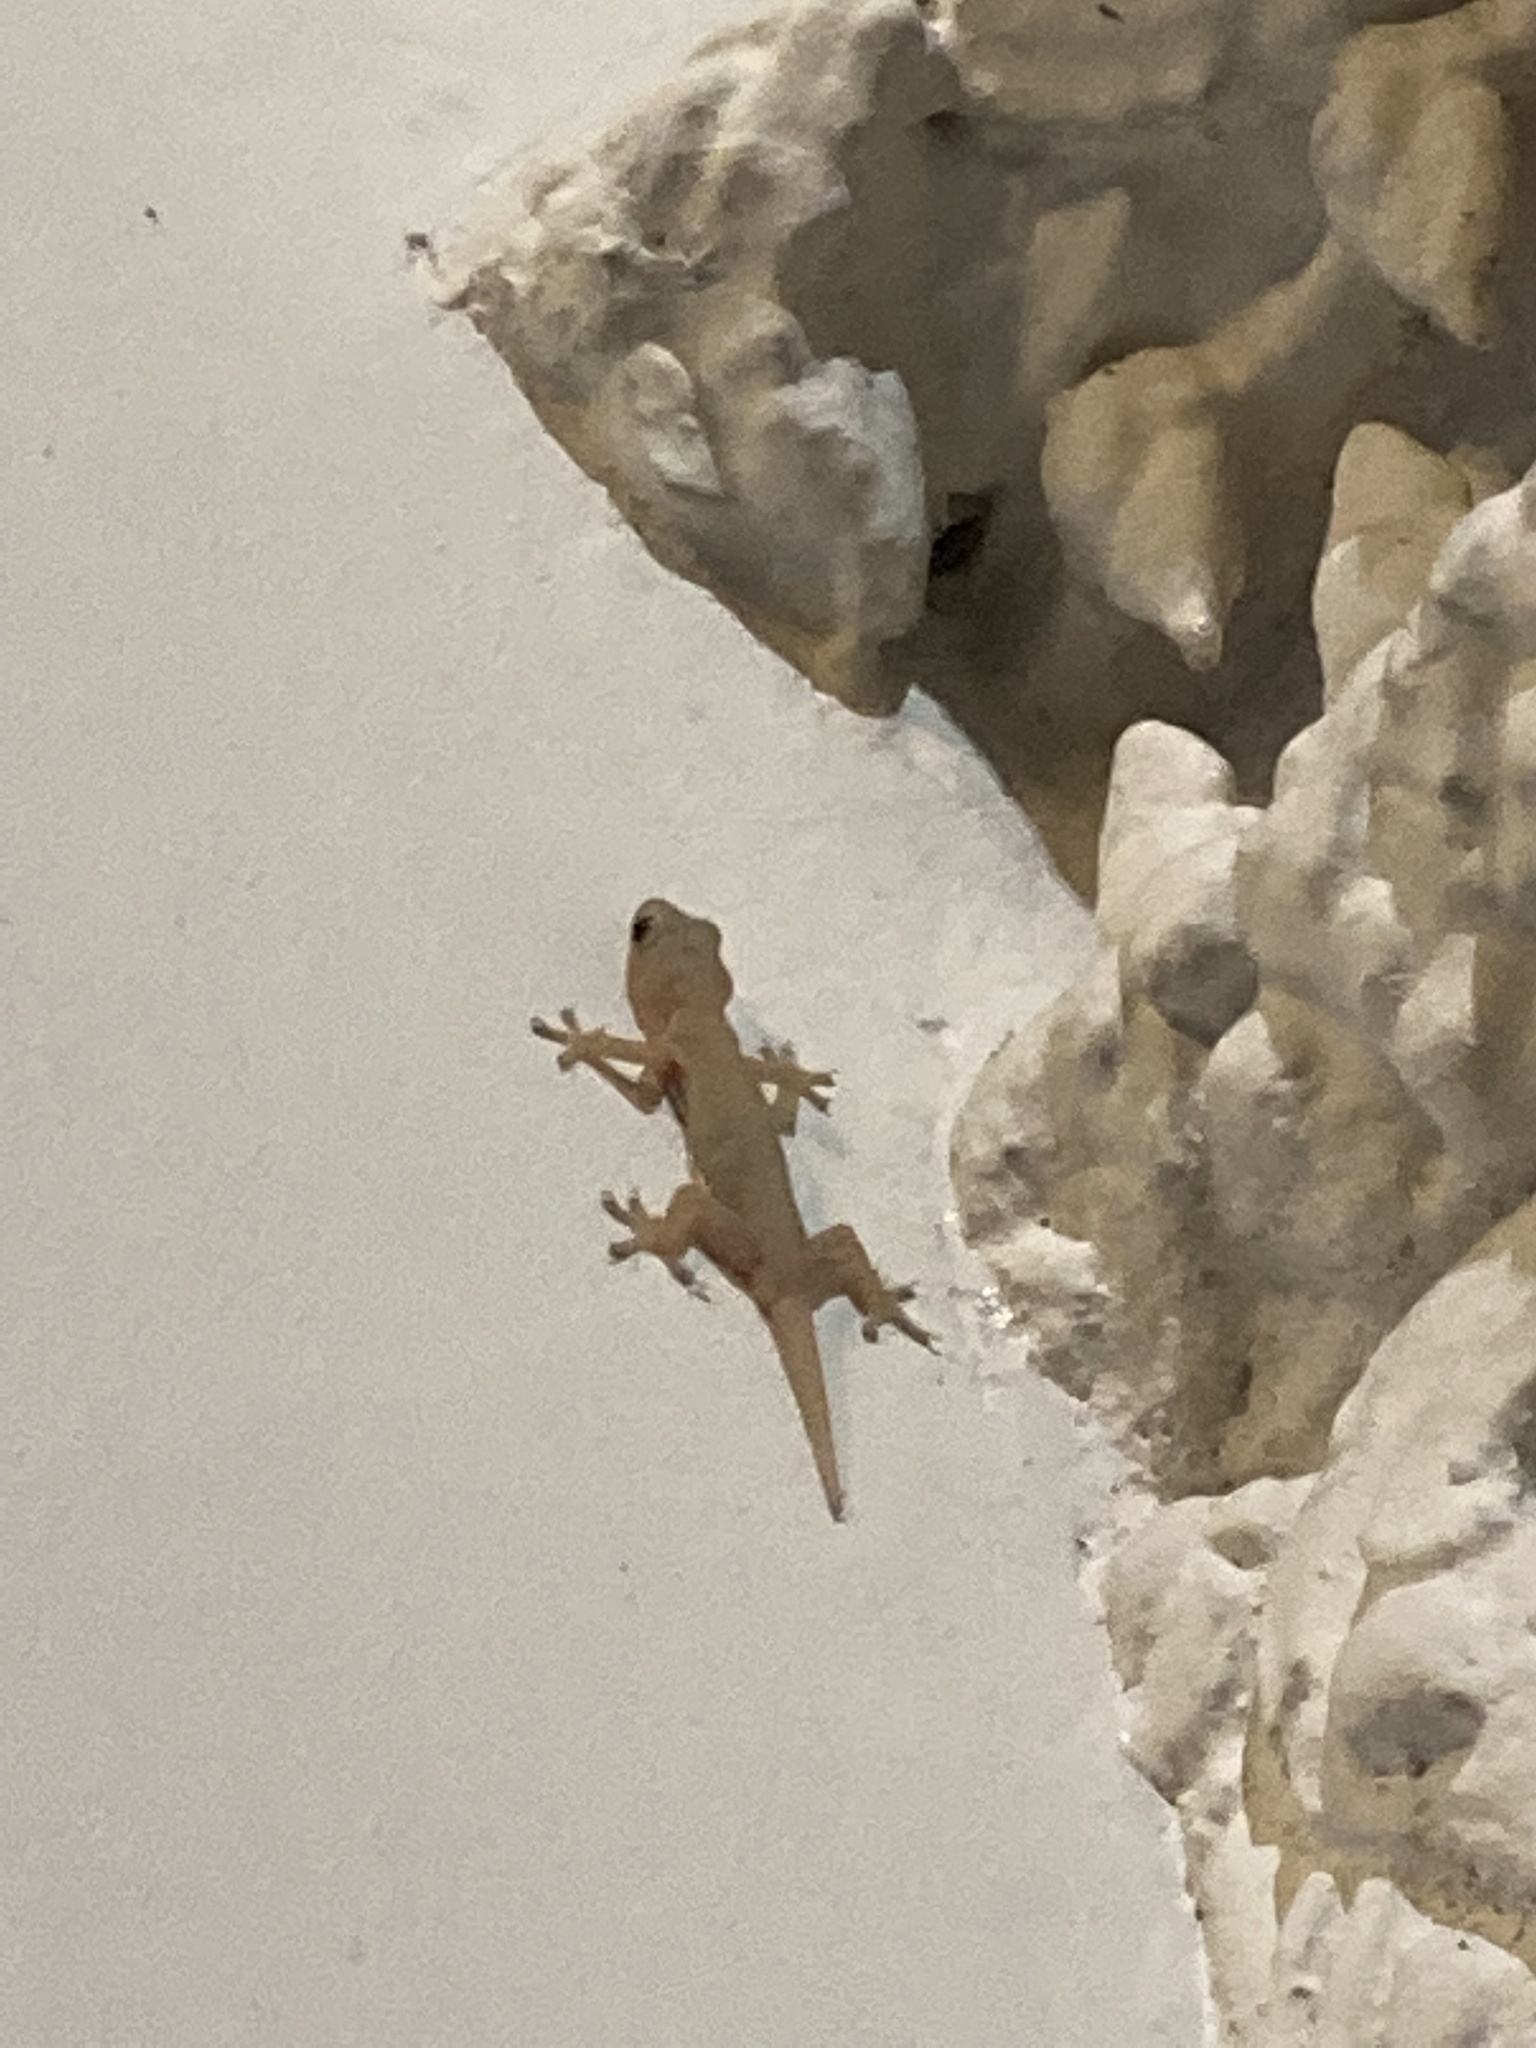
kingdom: Animalia
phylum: Chordata
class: Squamata
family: Gekkonidae
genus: Gehyra
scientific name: Gehyra mutilata
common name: Stump-toed gecko
